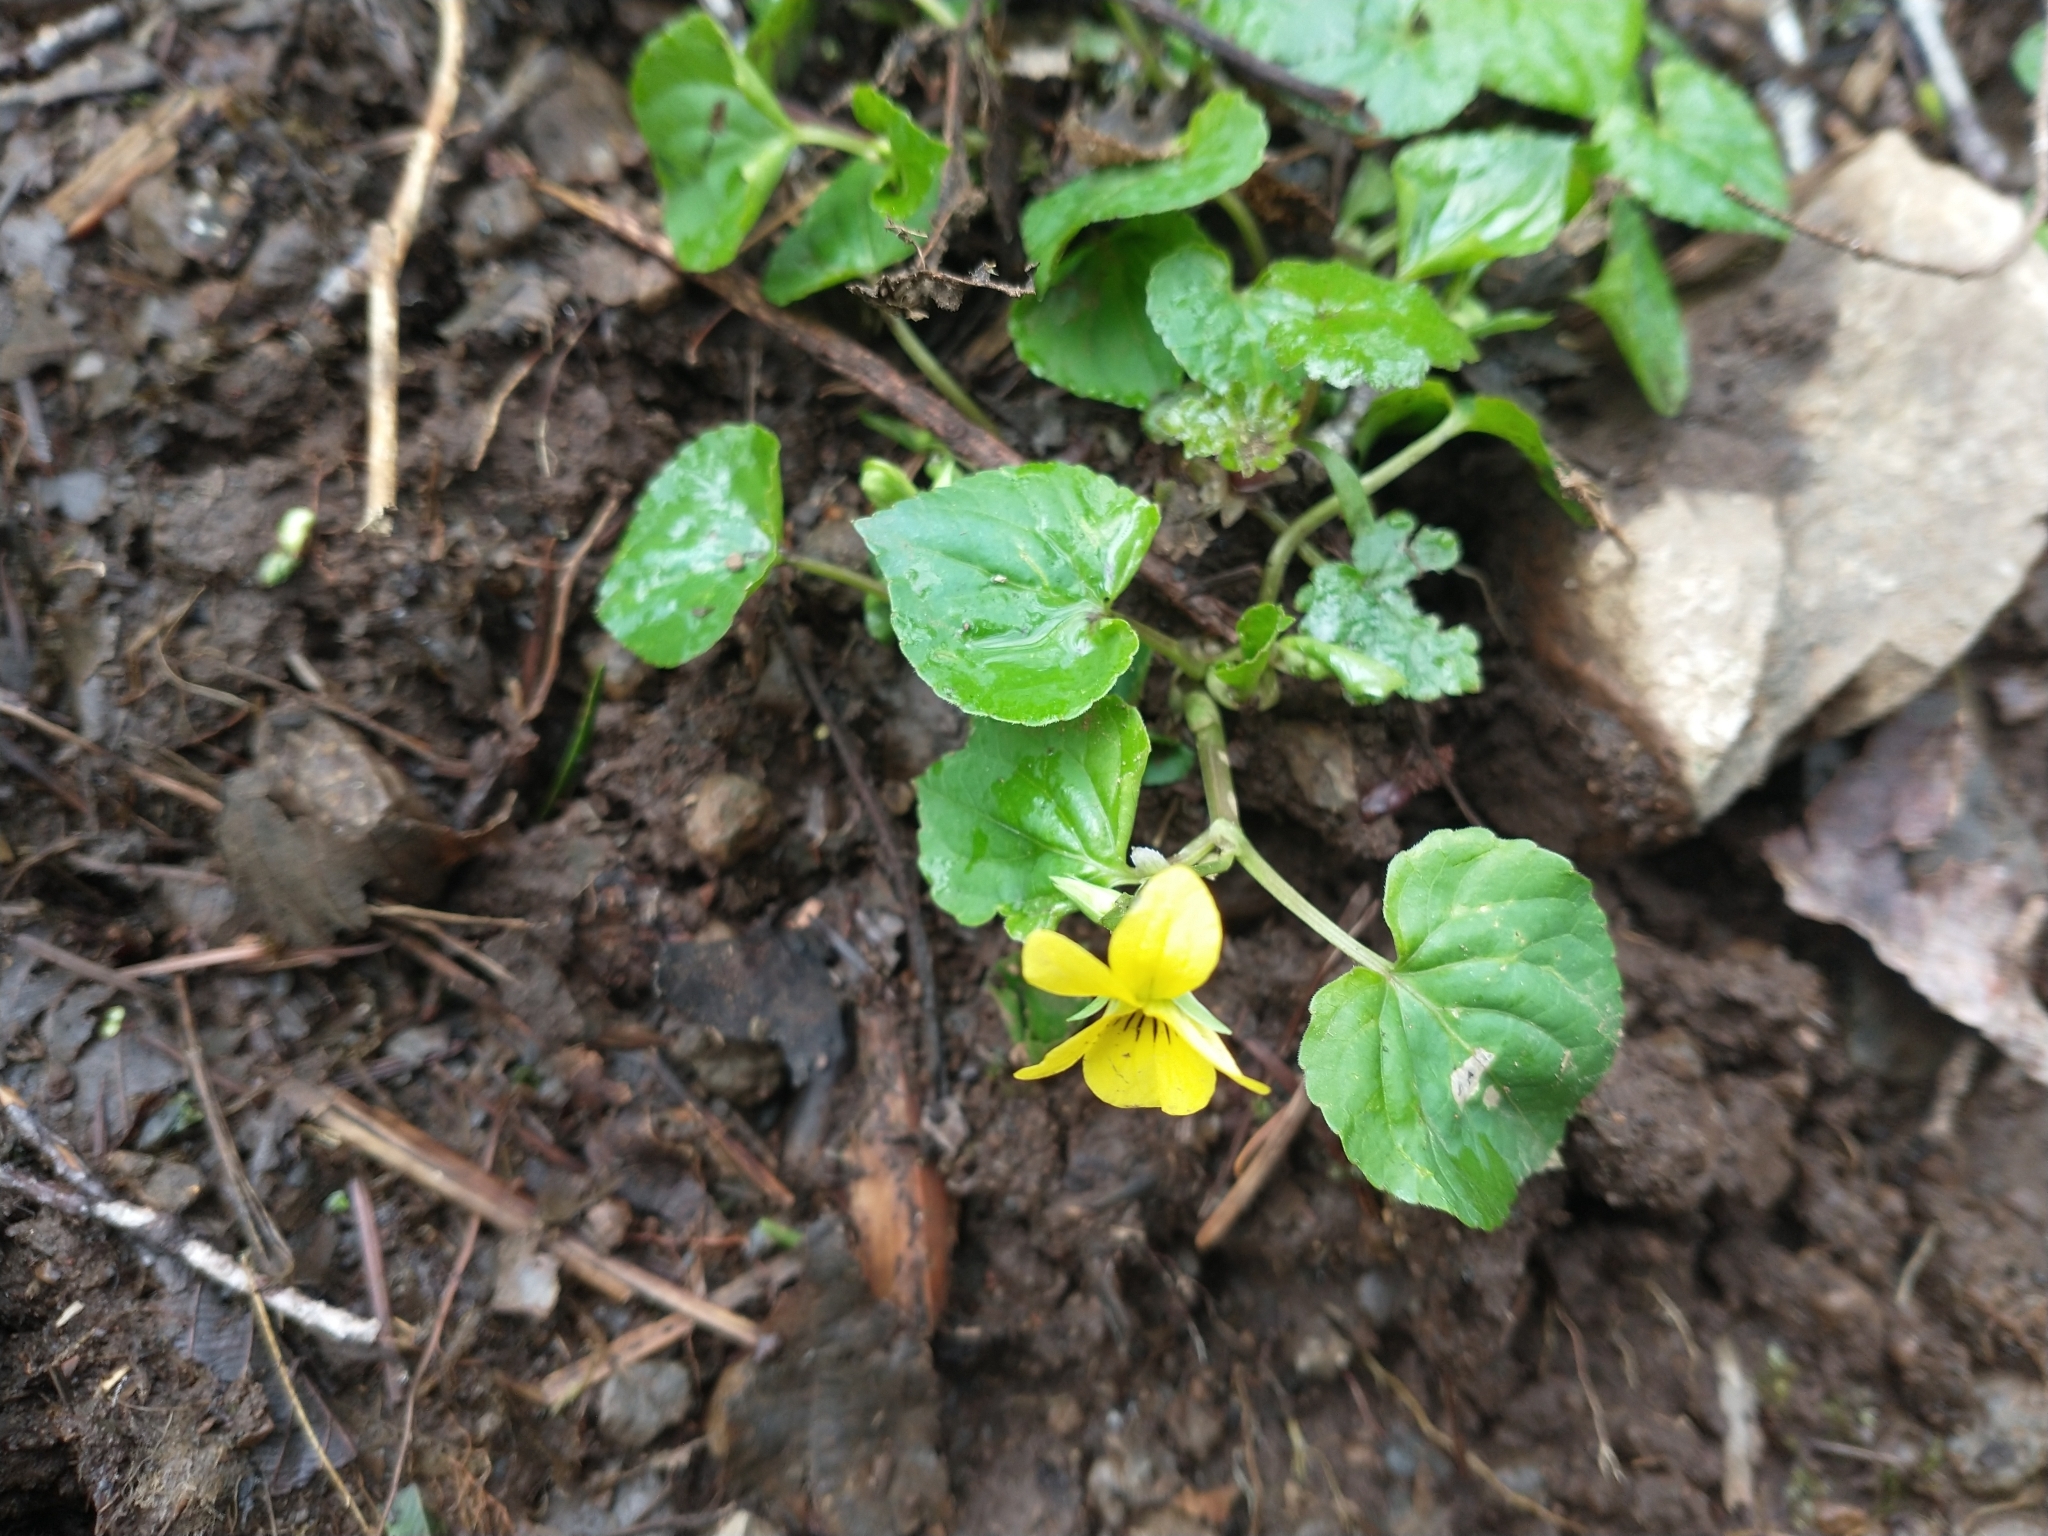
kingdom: Plantae
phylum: Tracheophyta
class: Magnoliopsida
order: Malpighiales
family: Violaceae
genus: Viola
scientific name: Viola glabella
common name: Stream violet
